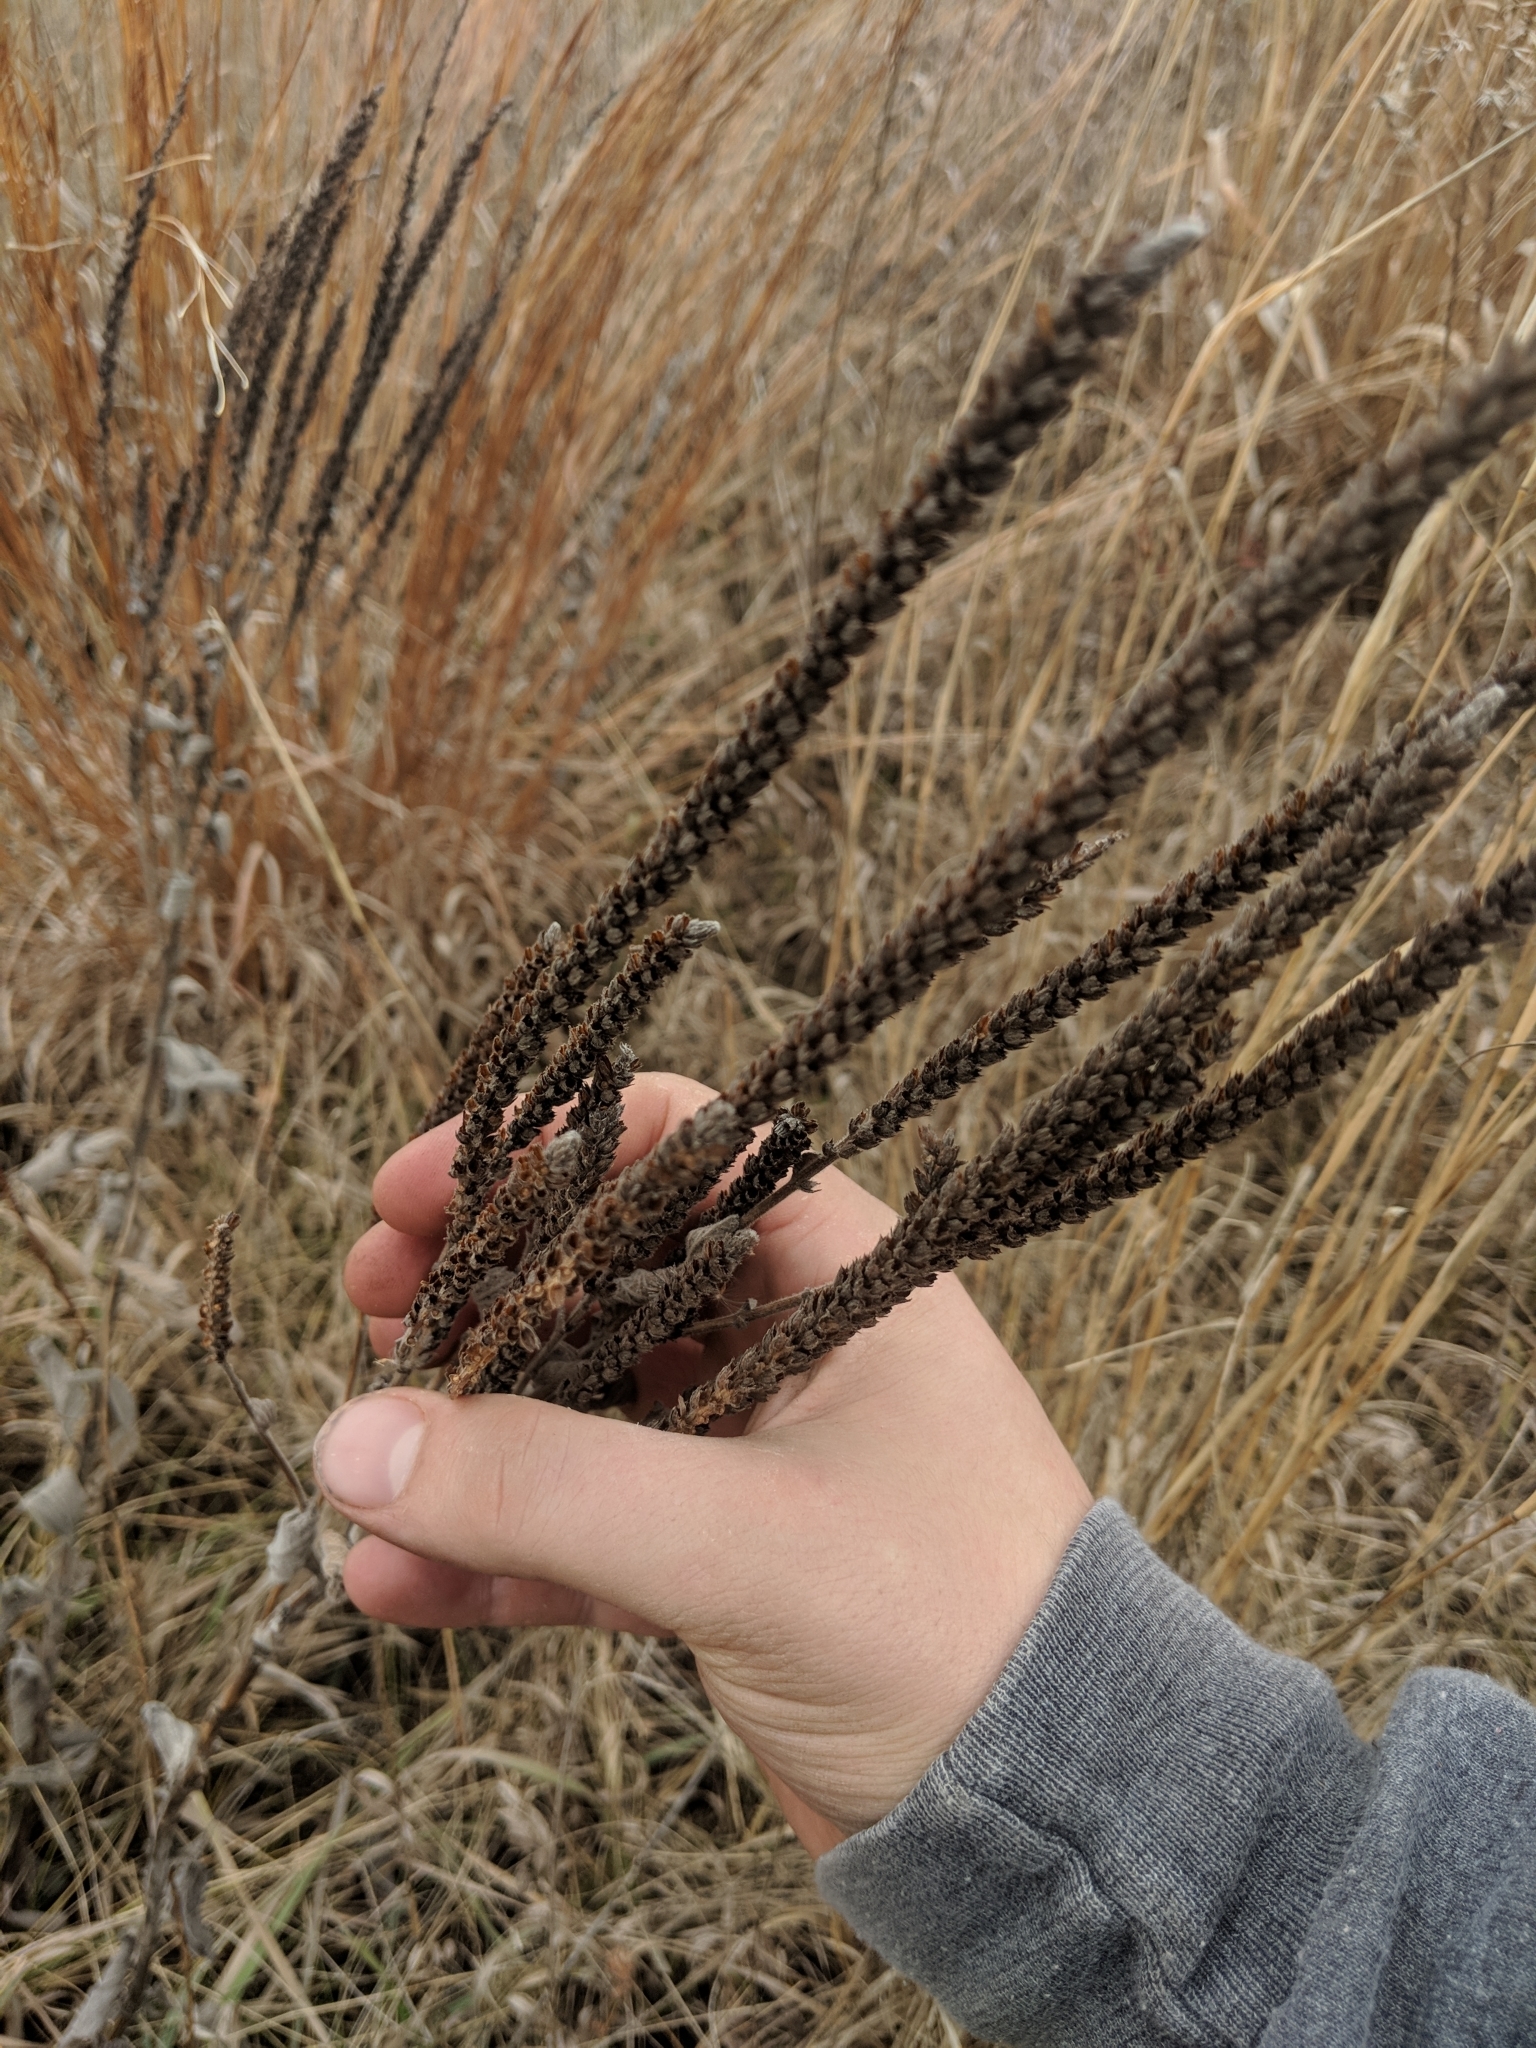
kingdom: Plantae
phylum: Tracheophyta
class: Magnoliopsida
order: Lamiales
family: Verbenaceae
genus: Verbena
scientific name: Verbena stricta
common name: Hoary vervain
